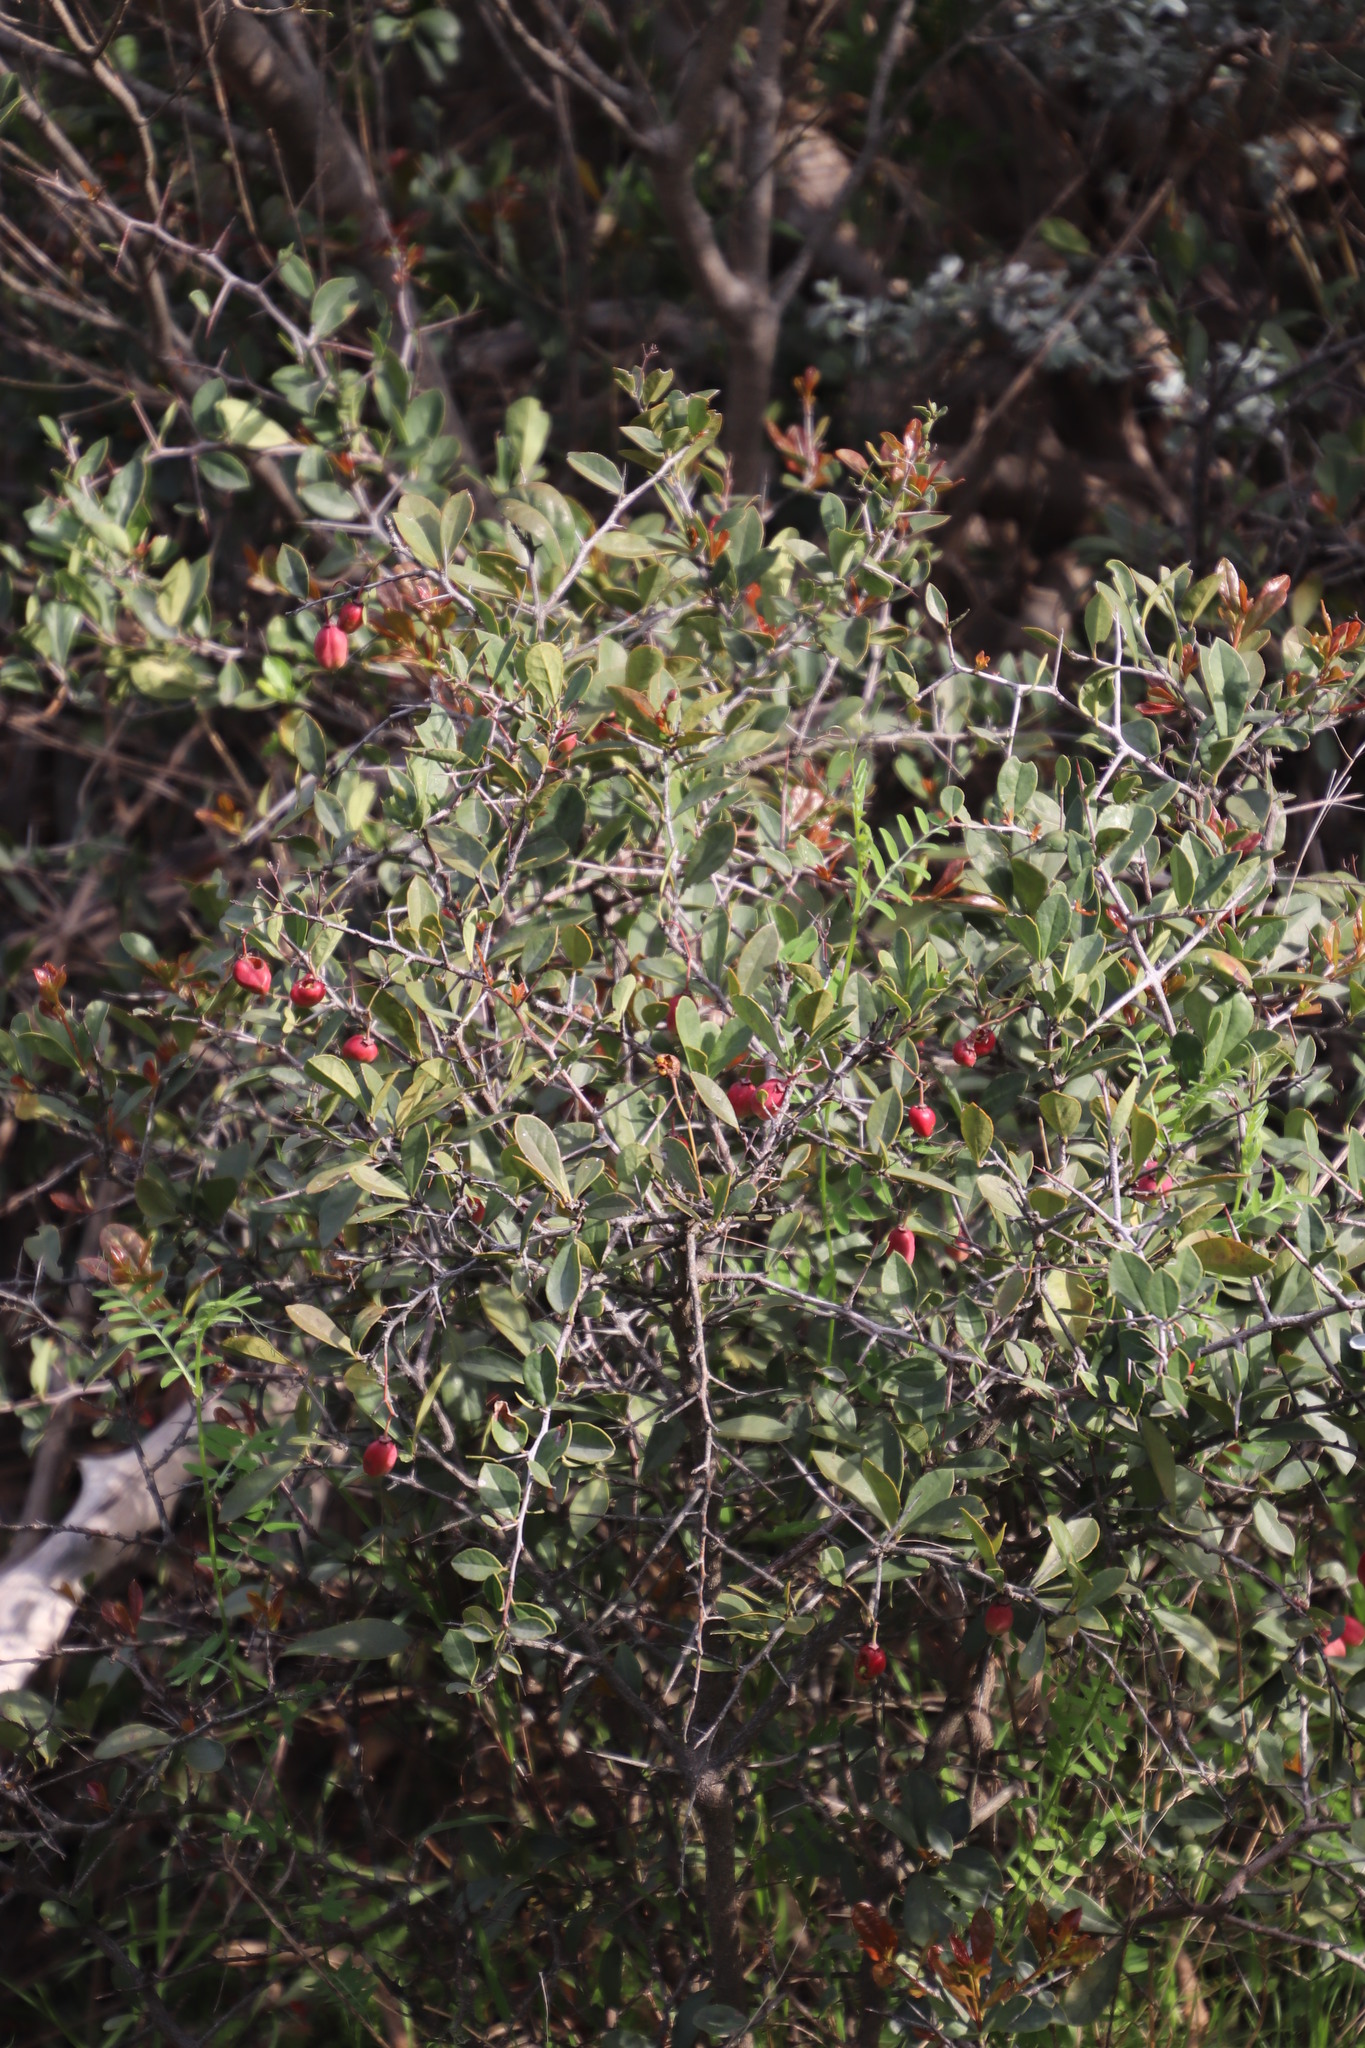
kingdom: Plantae
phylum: Tracheophyta
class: Magnoliopsida
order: Celastrales
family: Celastraceae
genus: Putterlickia
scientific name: Putterlickia pyracantha
